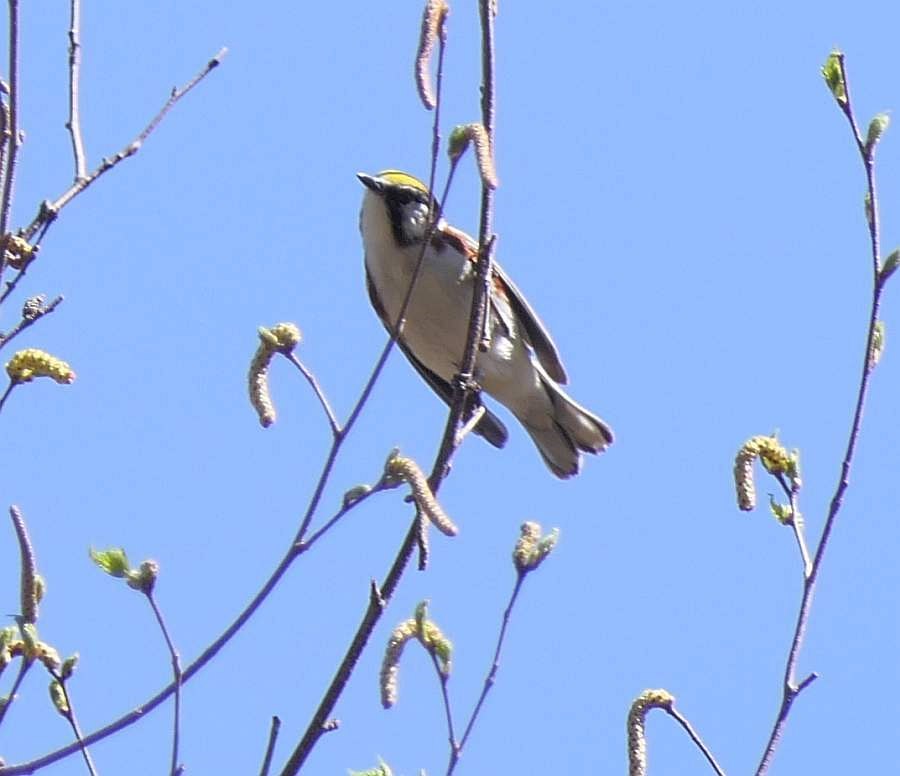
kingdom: Animalia
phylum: Chordata
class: Aves
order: Passeriformes
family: Parulidae
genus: Setophaga
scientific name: Setophaga pensylvanica
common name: Chestnut-sided warbler
